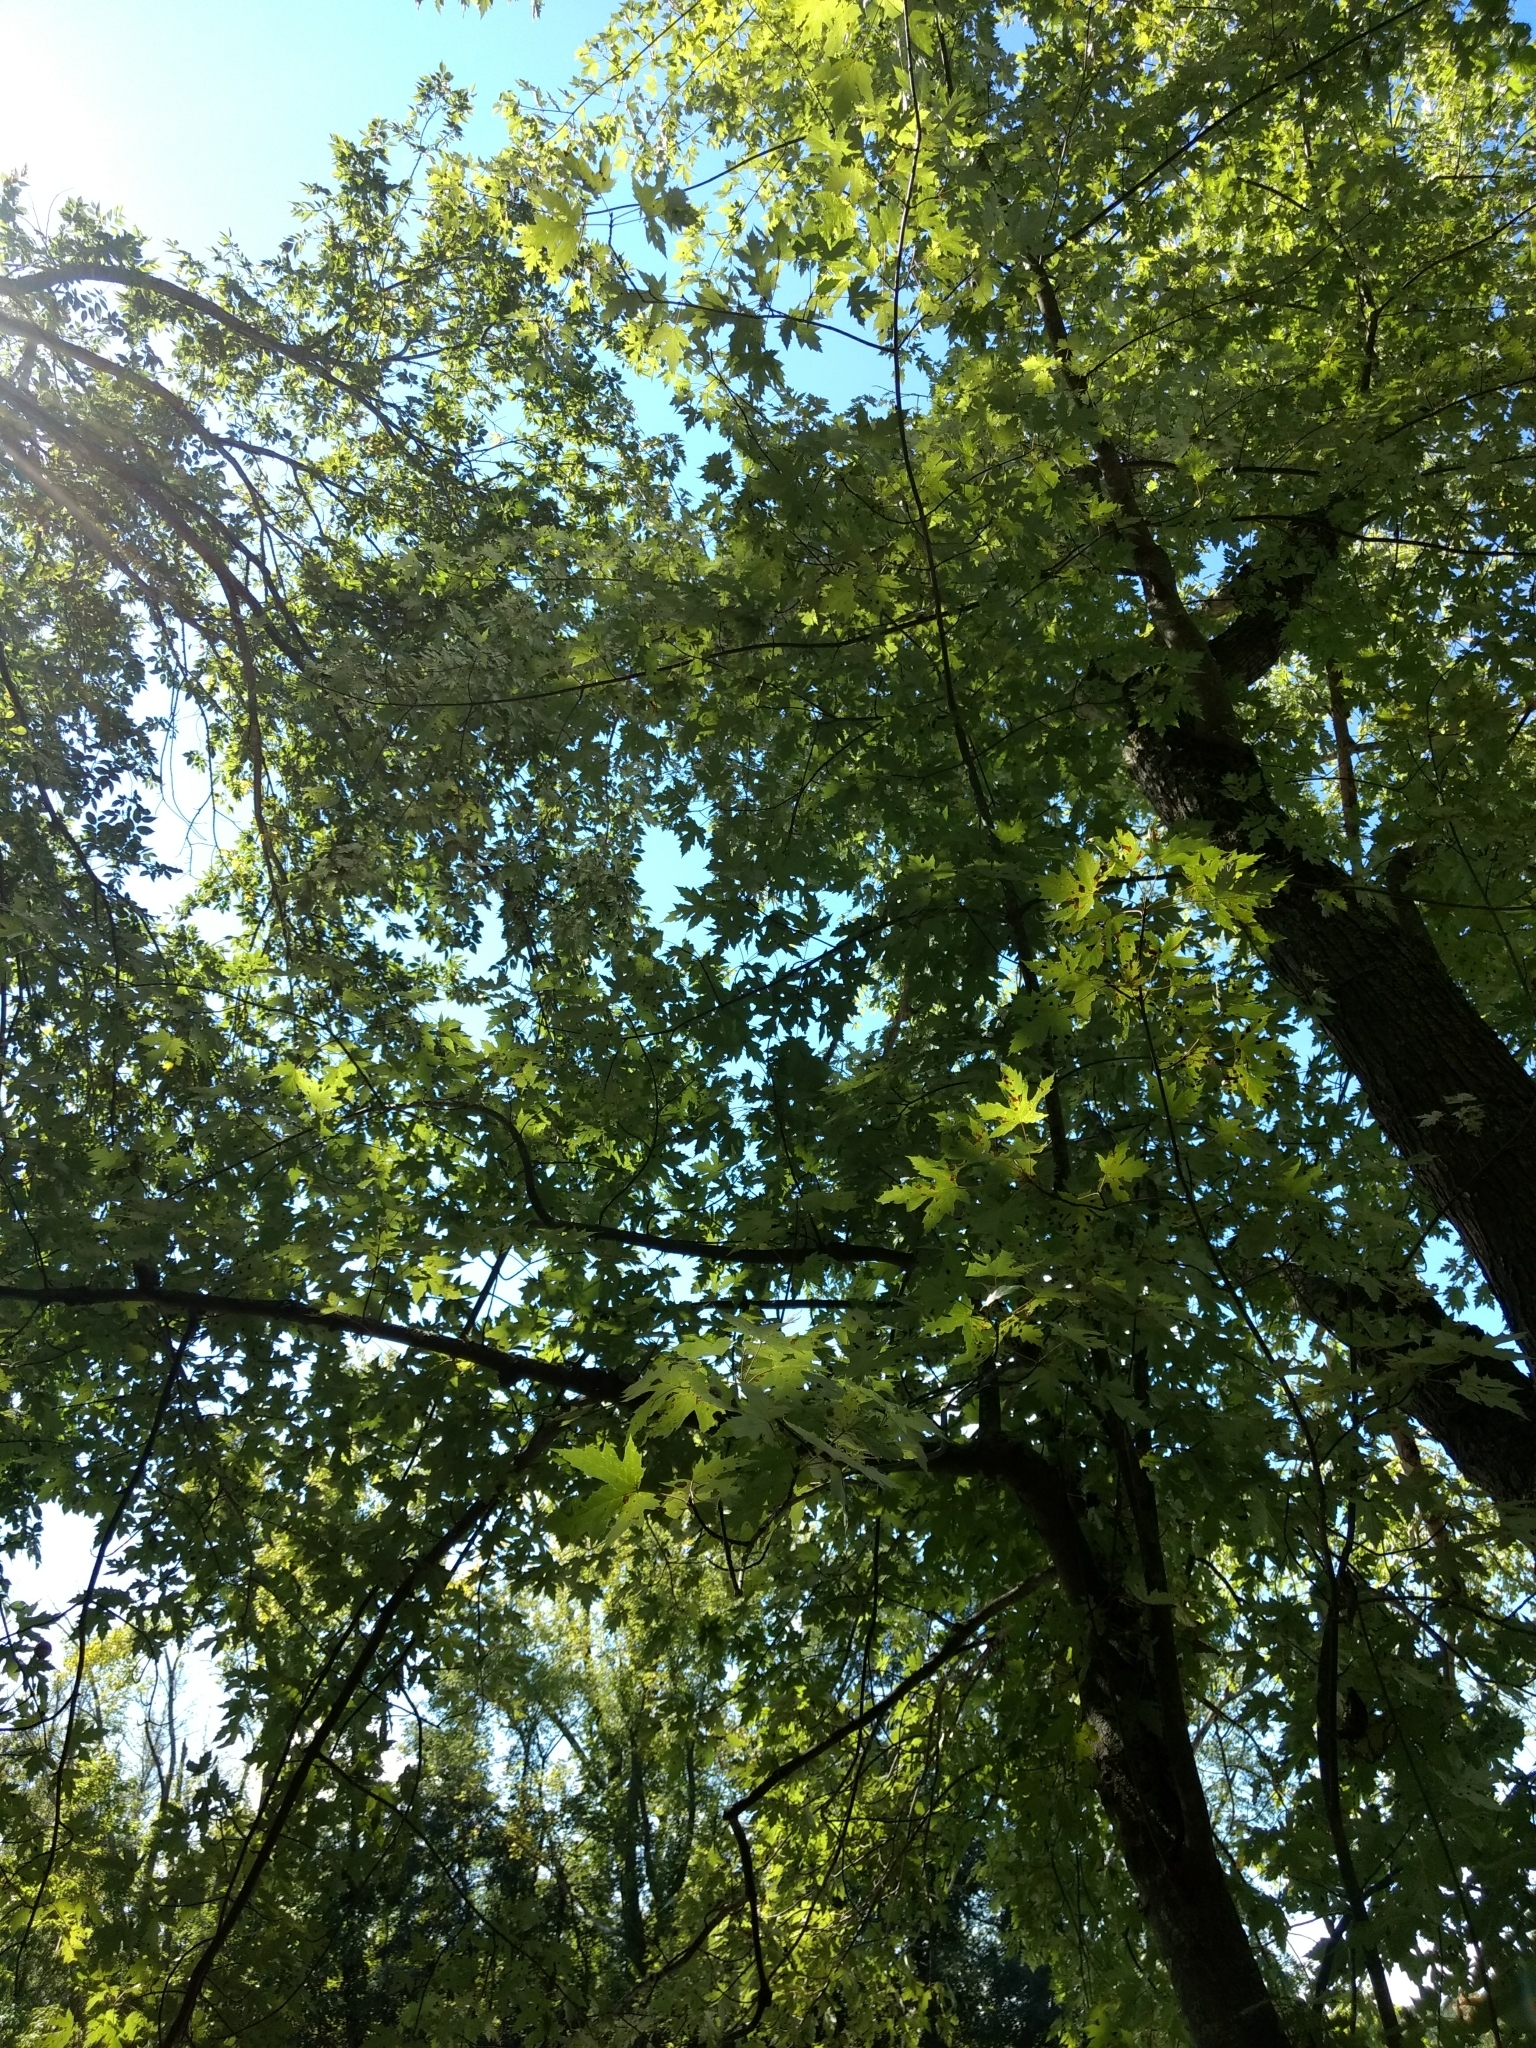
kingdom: Plantae
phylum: Tracheophyta
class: Magnoliopsida
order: Sapindales
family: Sapindaceae
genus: Acer
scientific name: Acer saccharinum
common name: Silver maple
